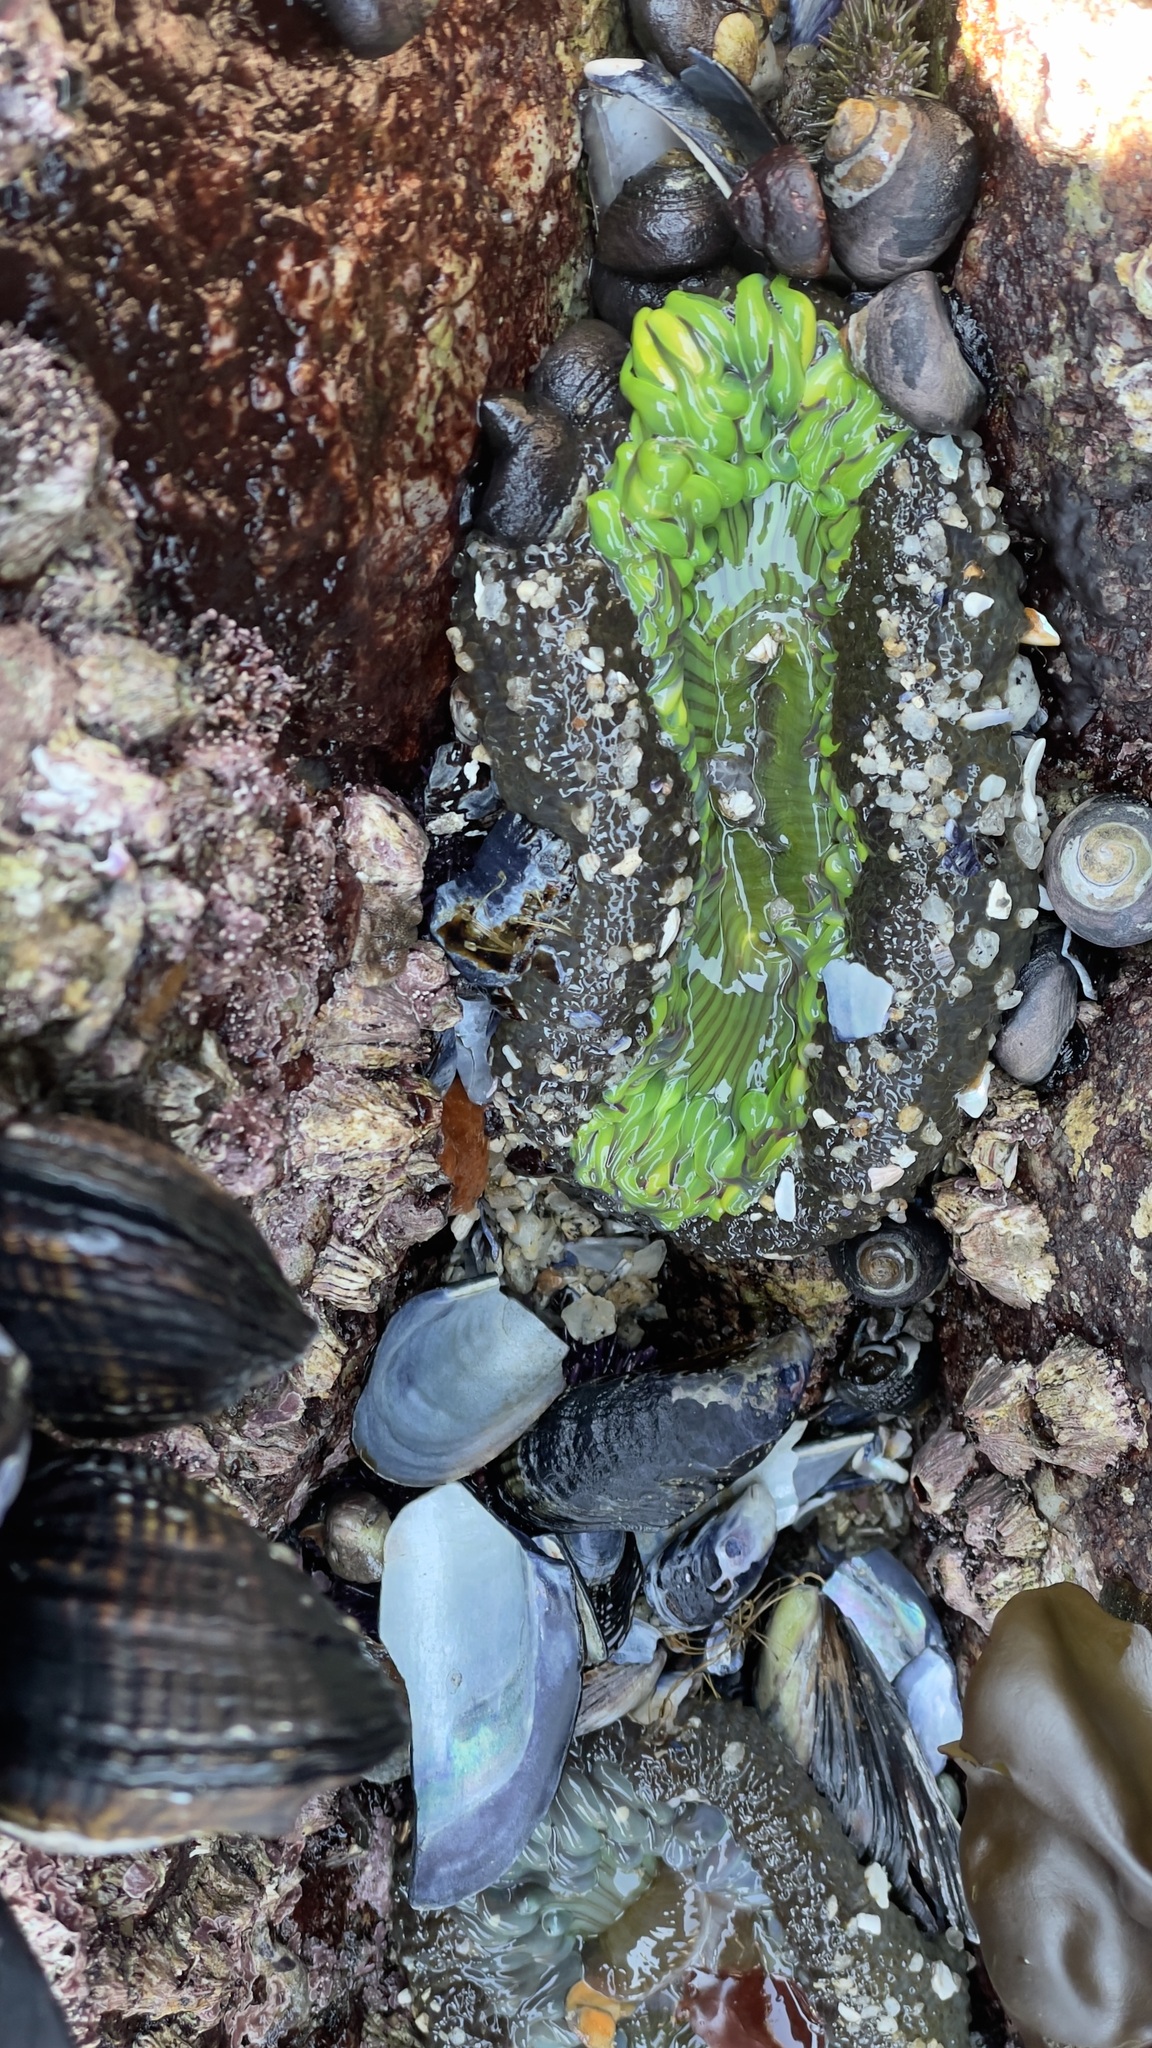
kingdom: Animalia
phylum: Cnidaria
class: Anthozoa
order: Actiniaria
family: Actiniidae
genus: Anthopleura
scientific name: Anthopleura sola
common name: Sun anemone
